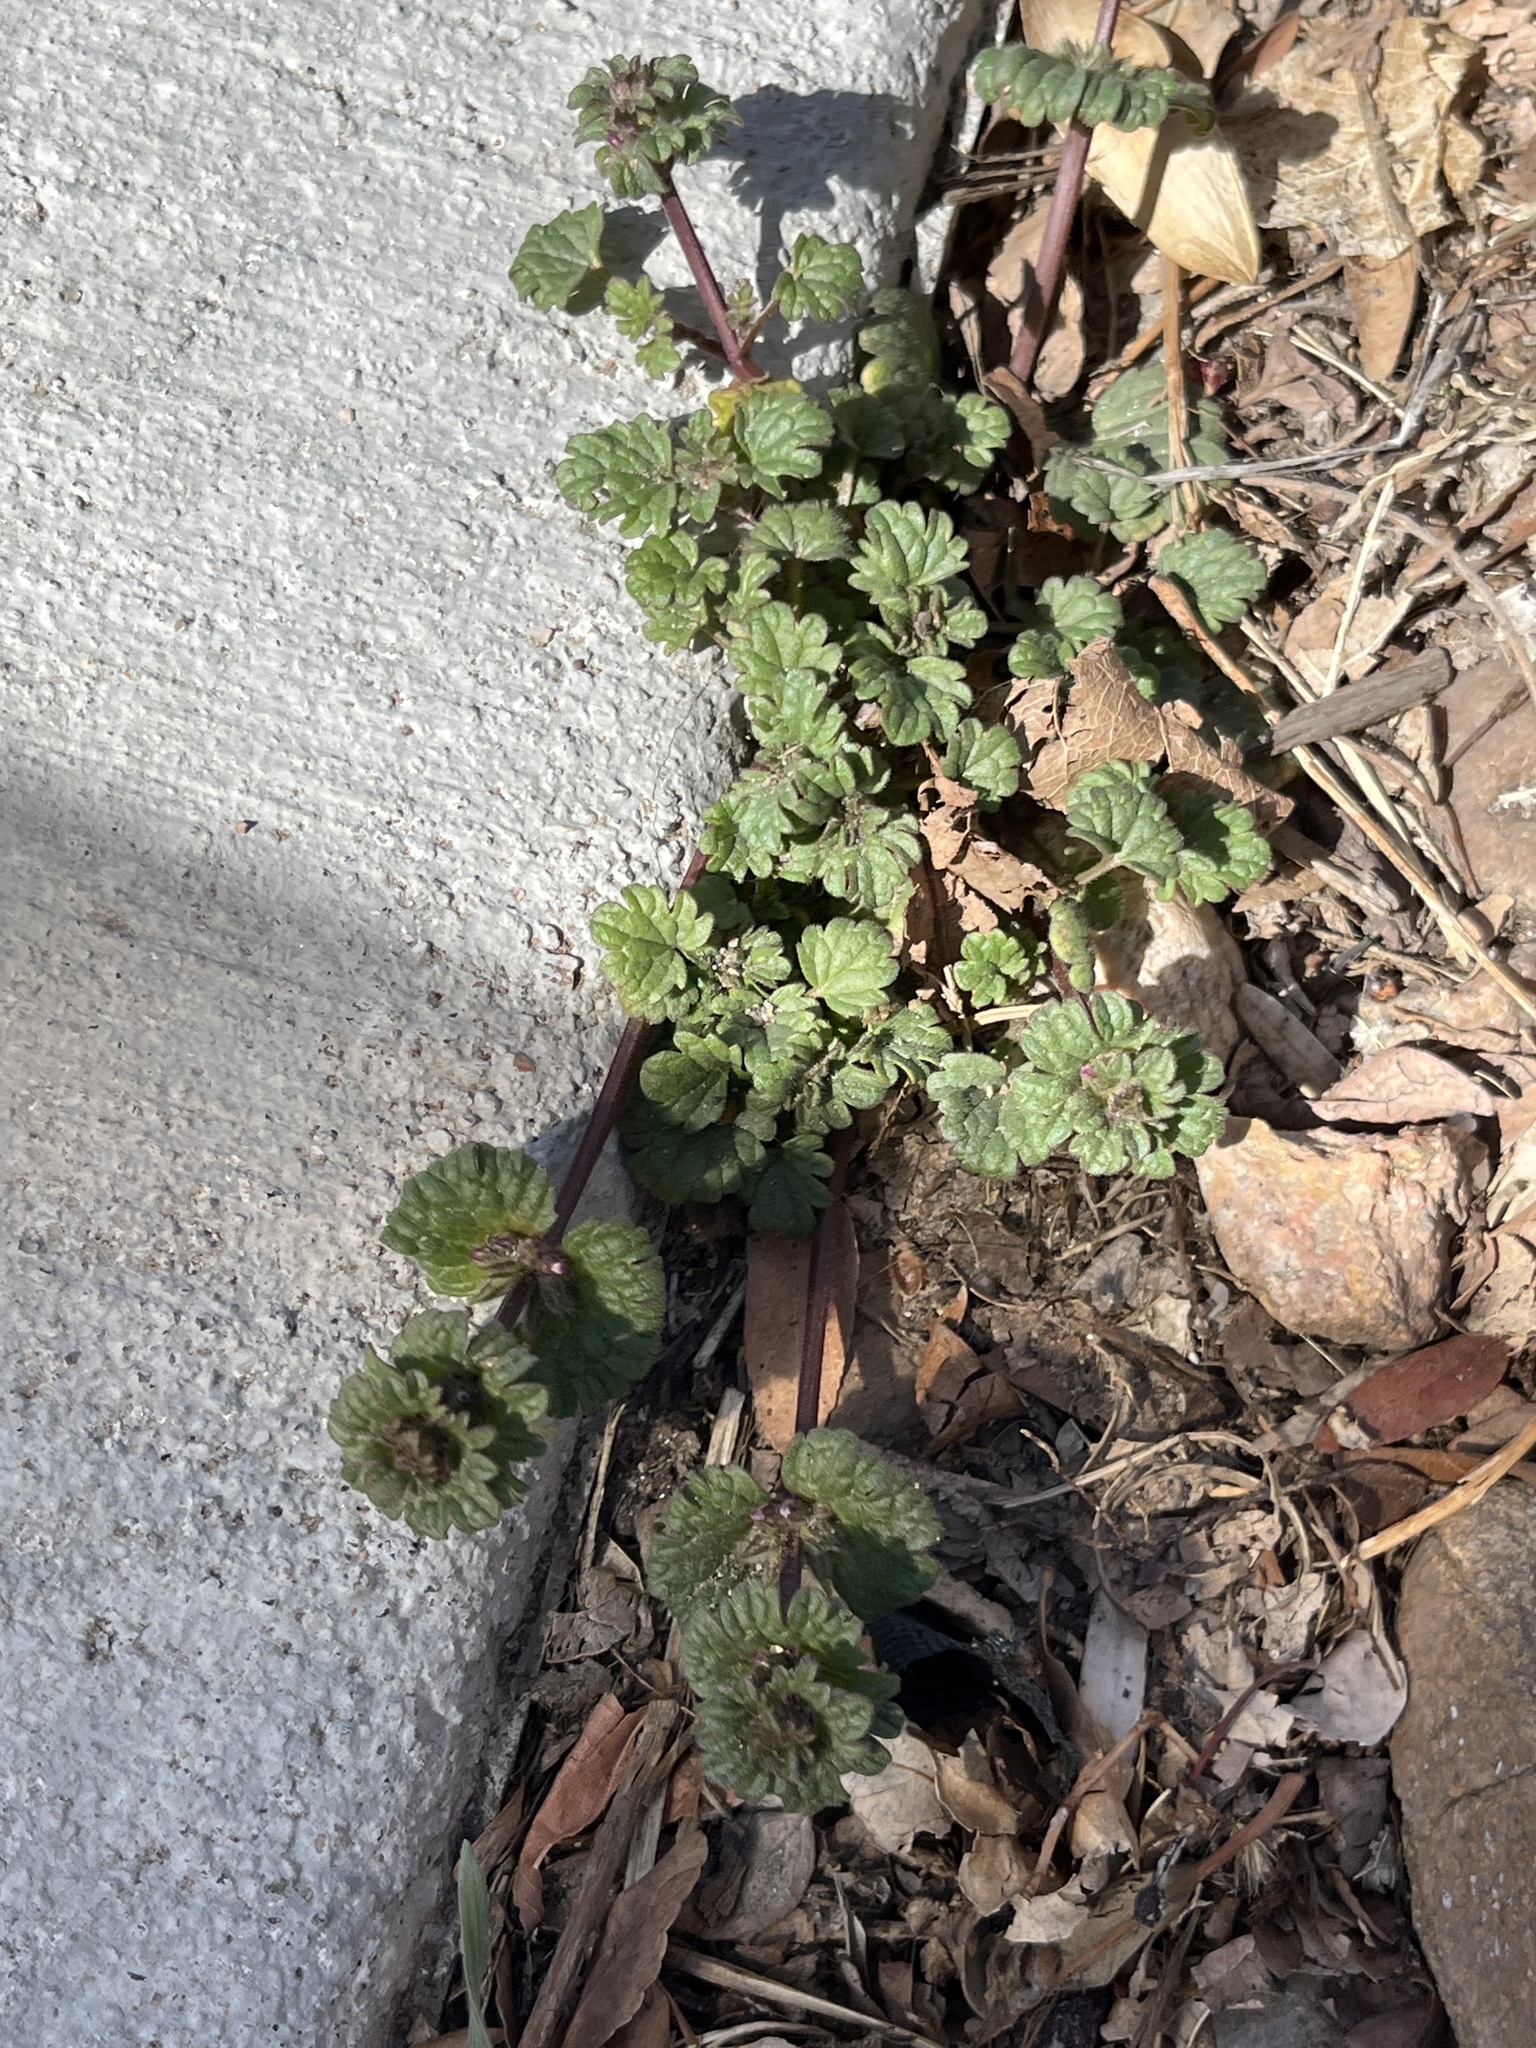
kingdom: Plantae
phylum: Tracheophyta
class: Magnoliopsida
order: Lamiales
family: Lamiaceae
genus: Lamium
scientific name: Lamium amplexicaule
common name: Henbit dead-nettle
